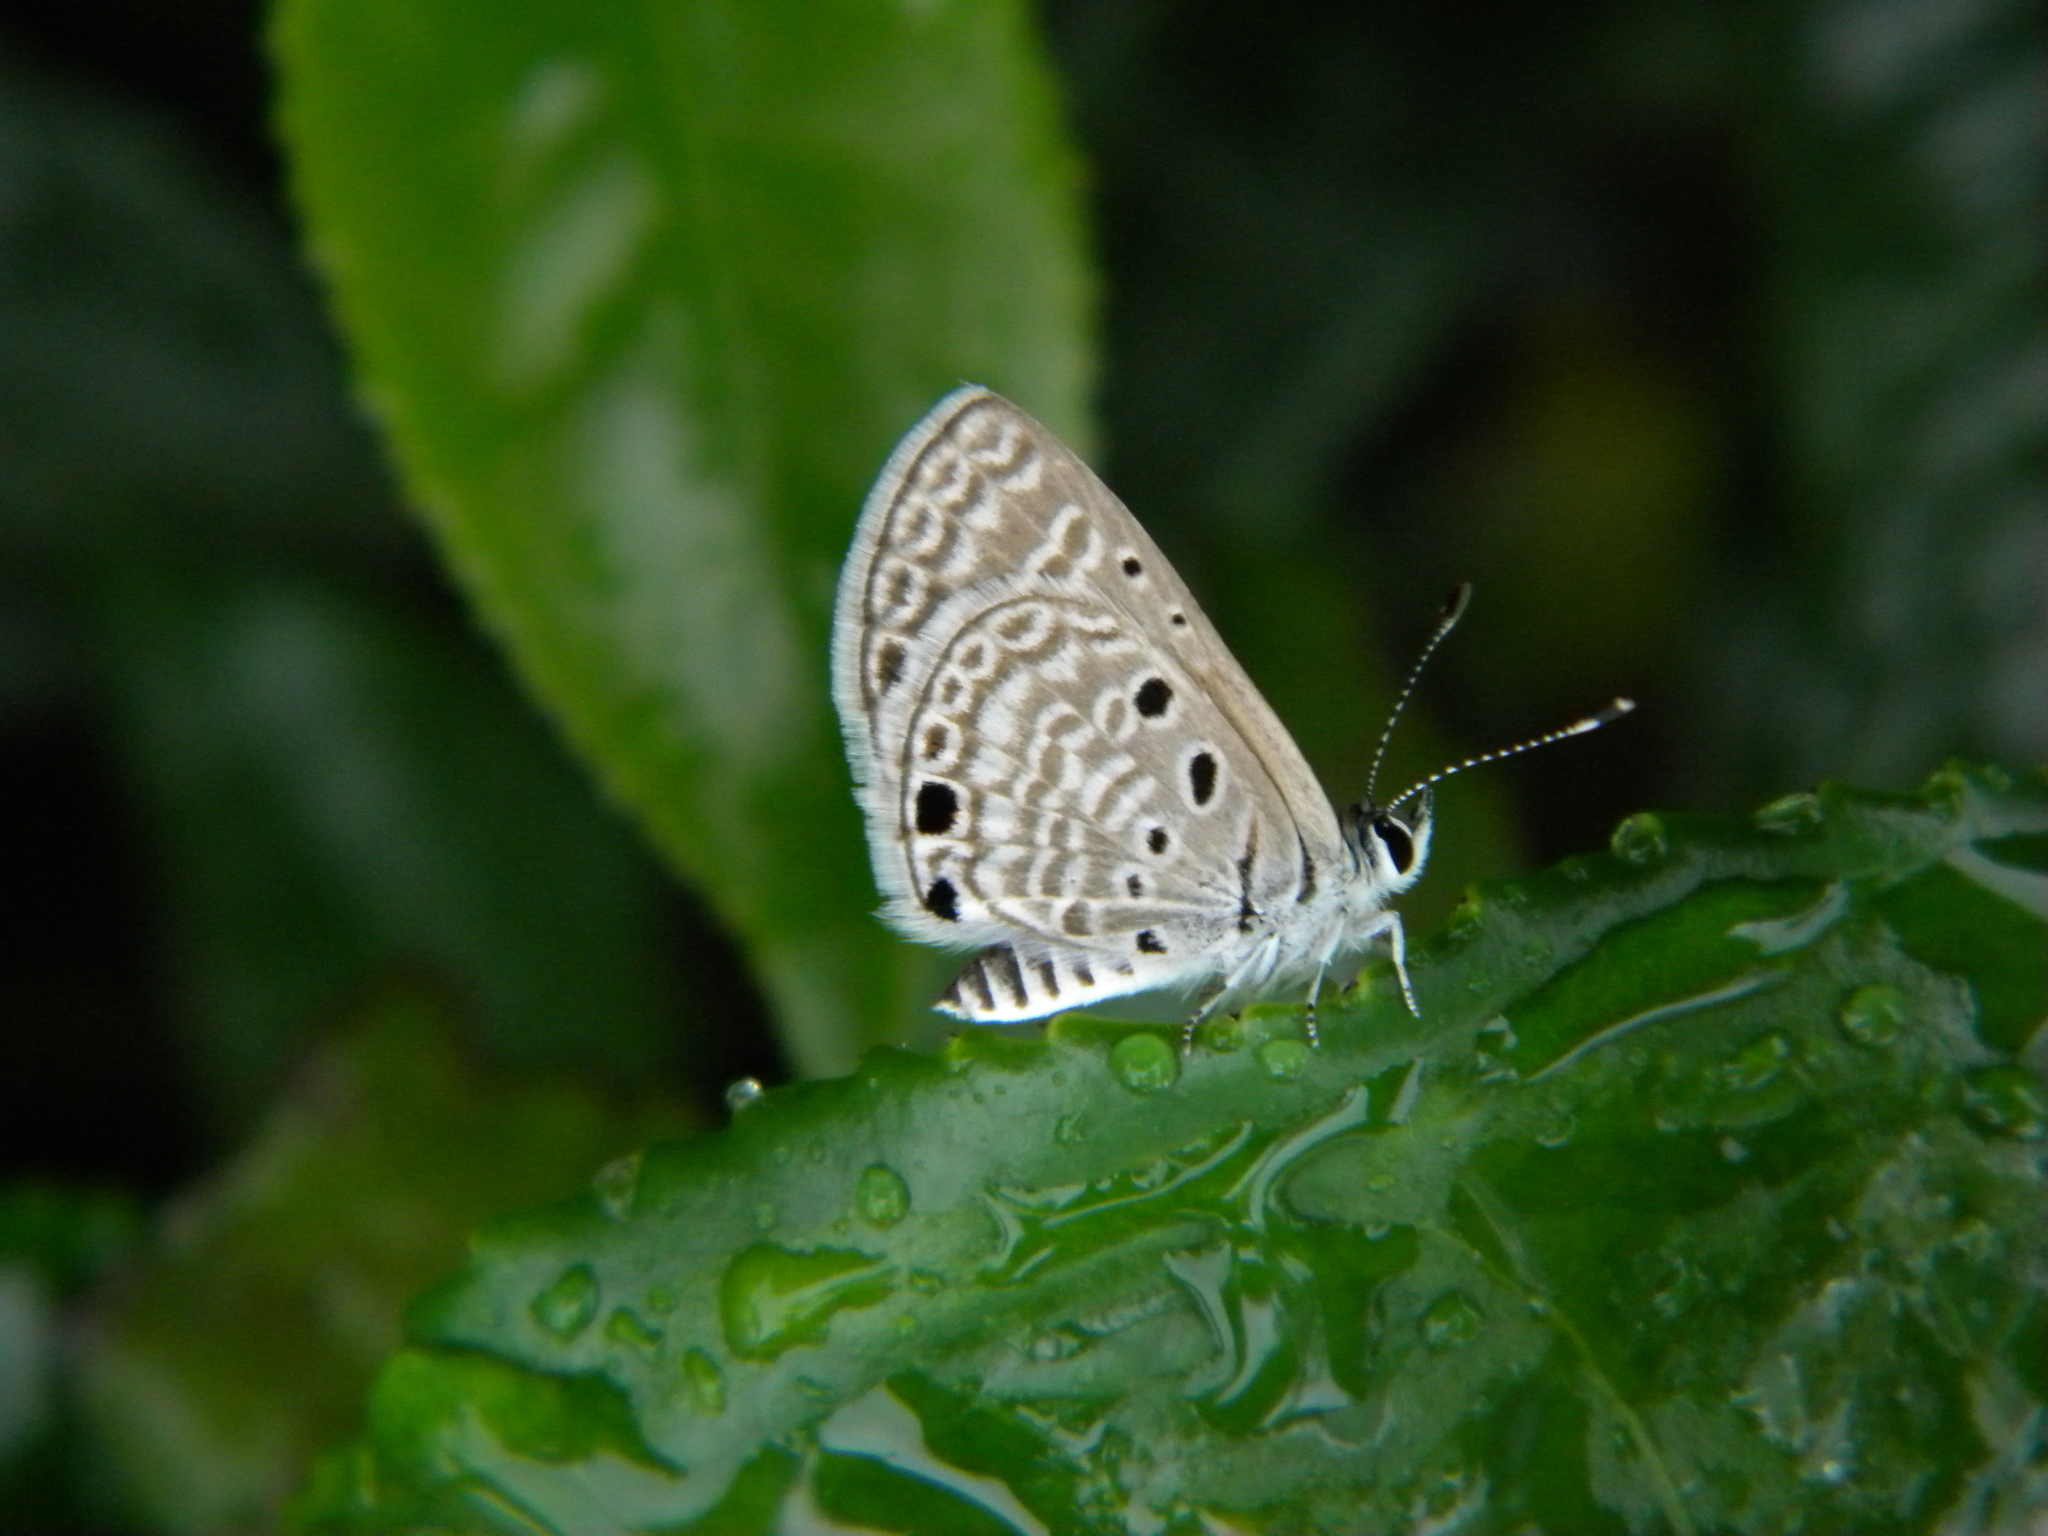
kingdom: Animalia
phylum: Arthropoda
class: Insecta
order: Lepidoptera
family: Lycaenidae
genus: Azanus
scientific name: Azanus ubaldus
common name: Desert babul blue
